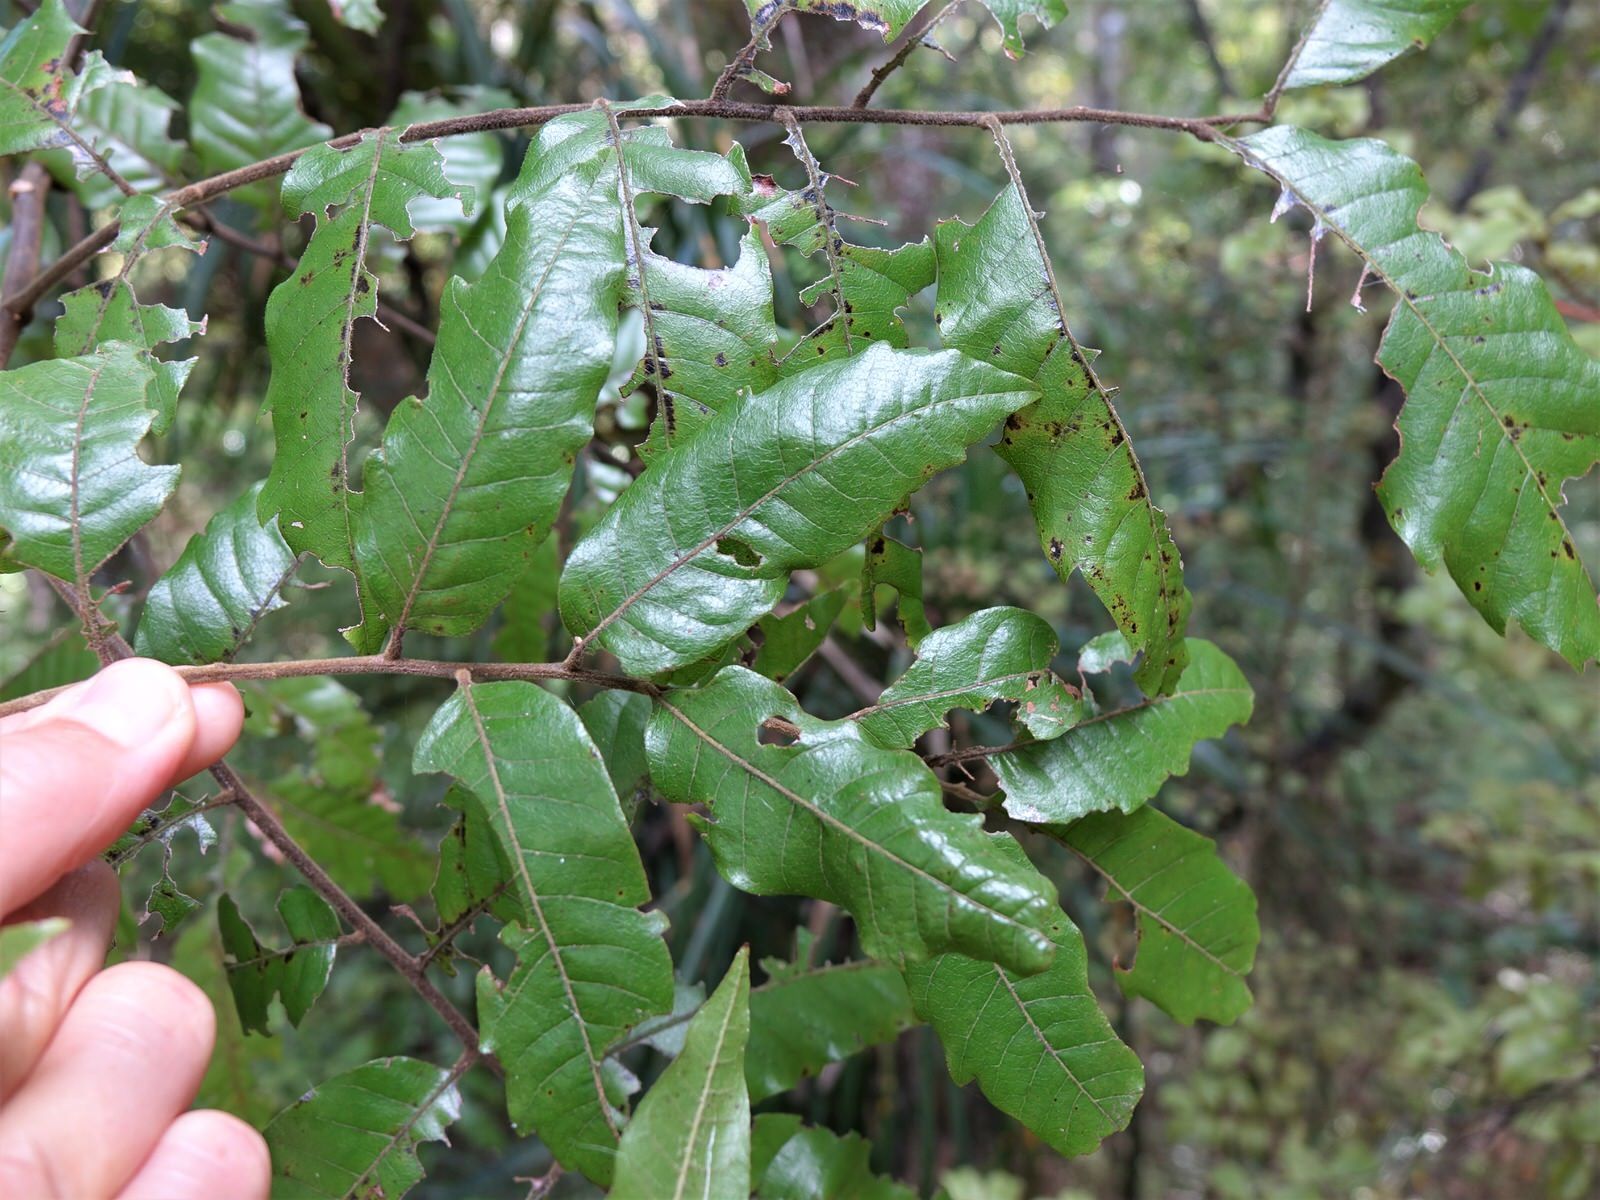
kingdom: Plantae
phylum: Tracheophyta
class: Magnoliopsida
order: Sapindales
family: Sapindaceae
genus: Alectryon
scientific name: Alectryon excelsus
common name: Three kings titoki
